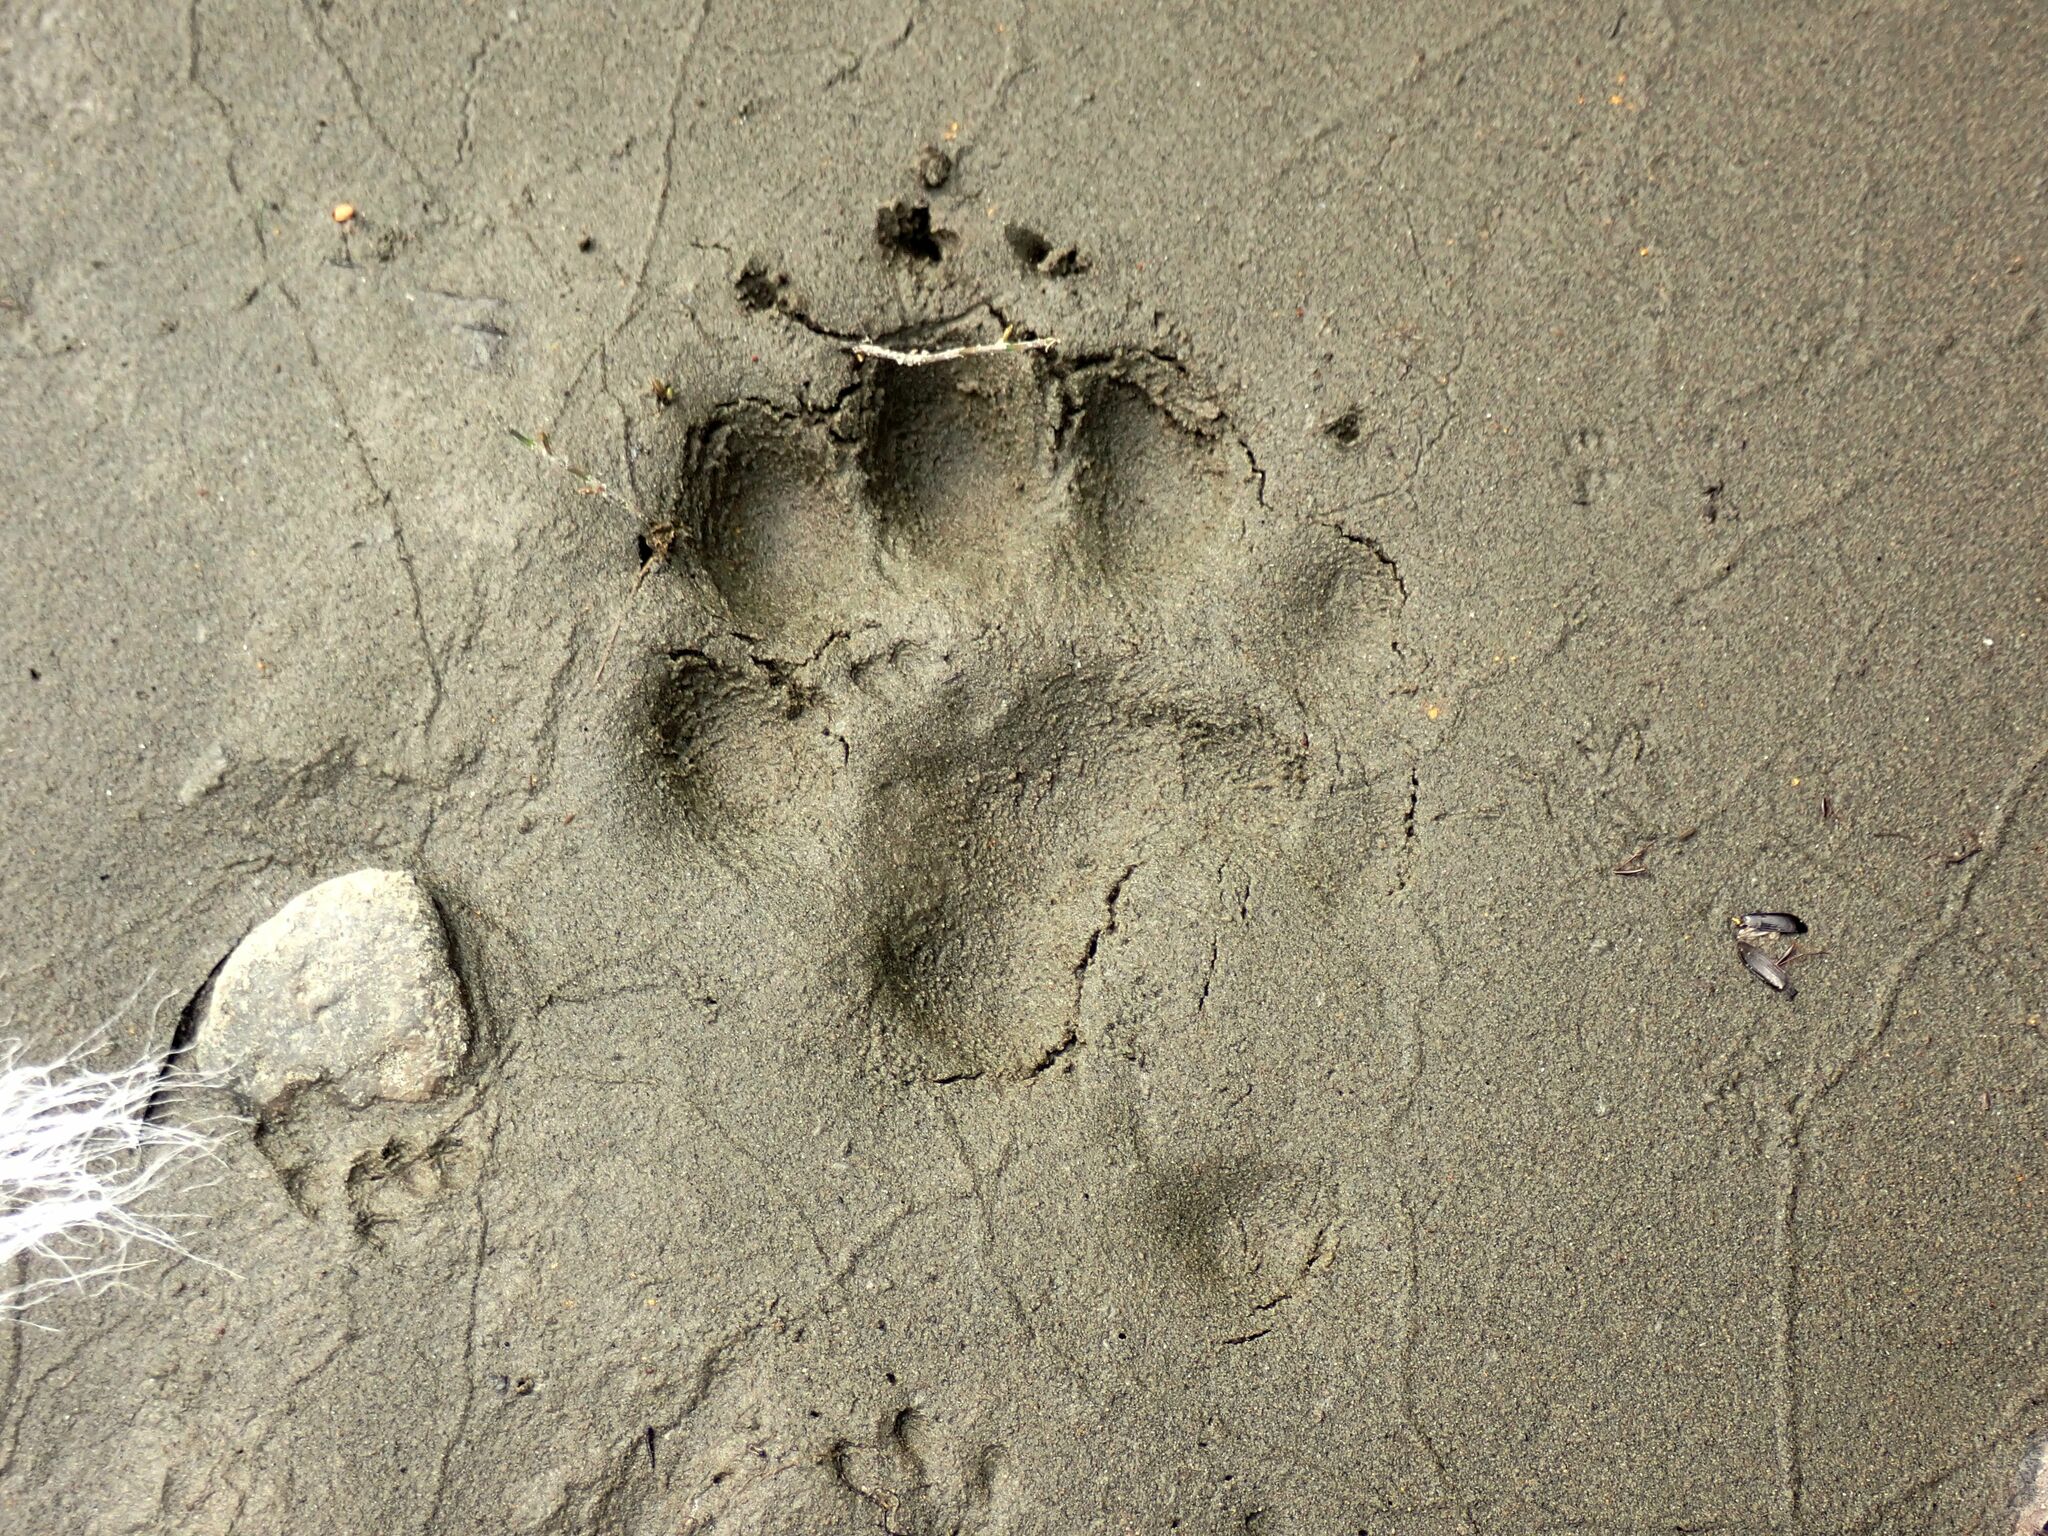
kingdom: Animalia
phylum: Chordata
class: Mammalia
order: Carnivora
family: Mustelidae
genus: Gulo
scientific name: Gulo gulo
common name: Wolverine
